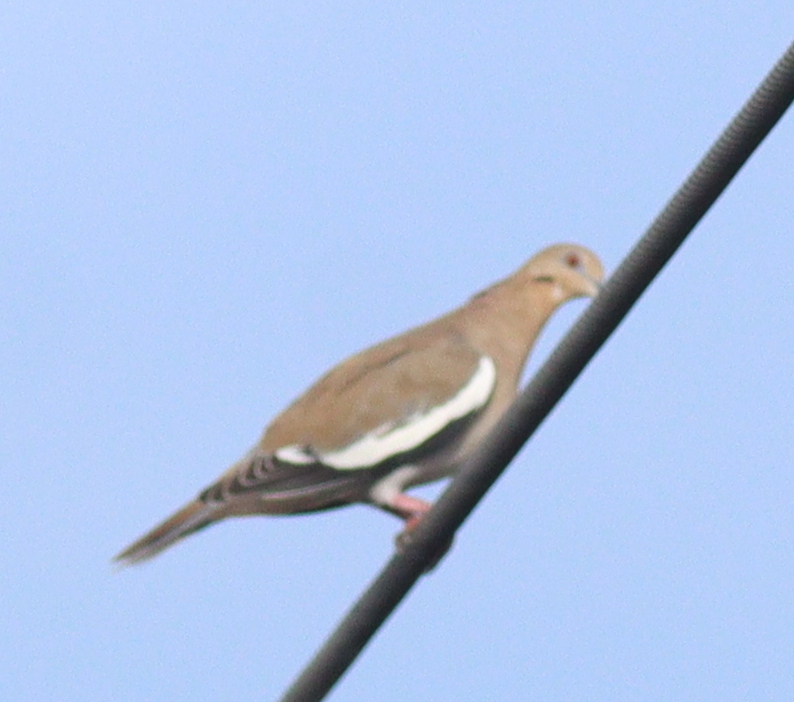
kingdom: Animalia
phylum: Chordata
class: Aves
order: Columbiformes
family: Columbidae
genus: Zenaida
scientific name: Zenaida asiatica
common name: White-winged dove
